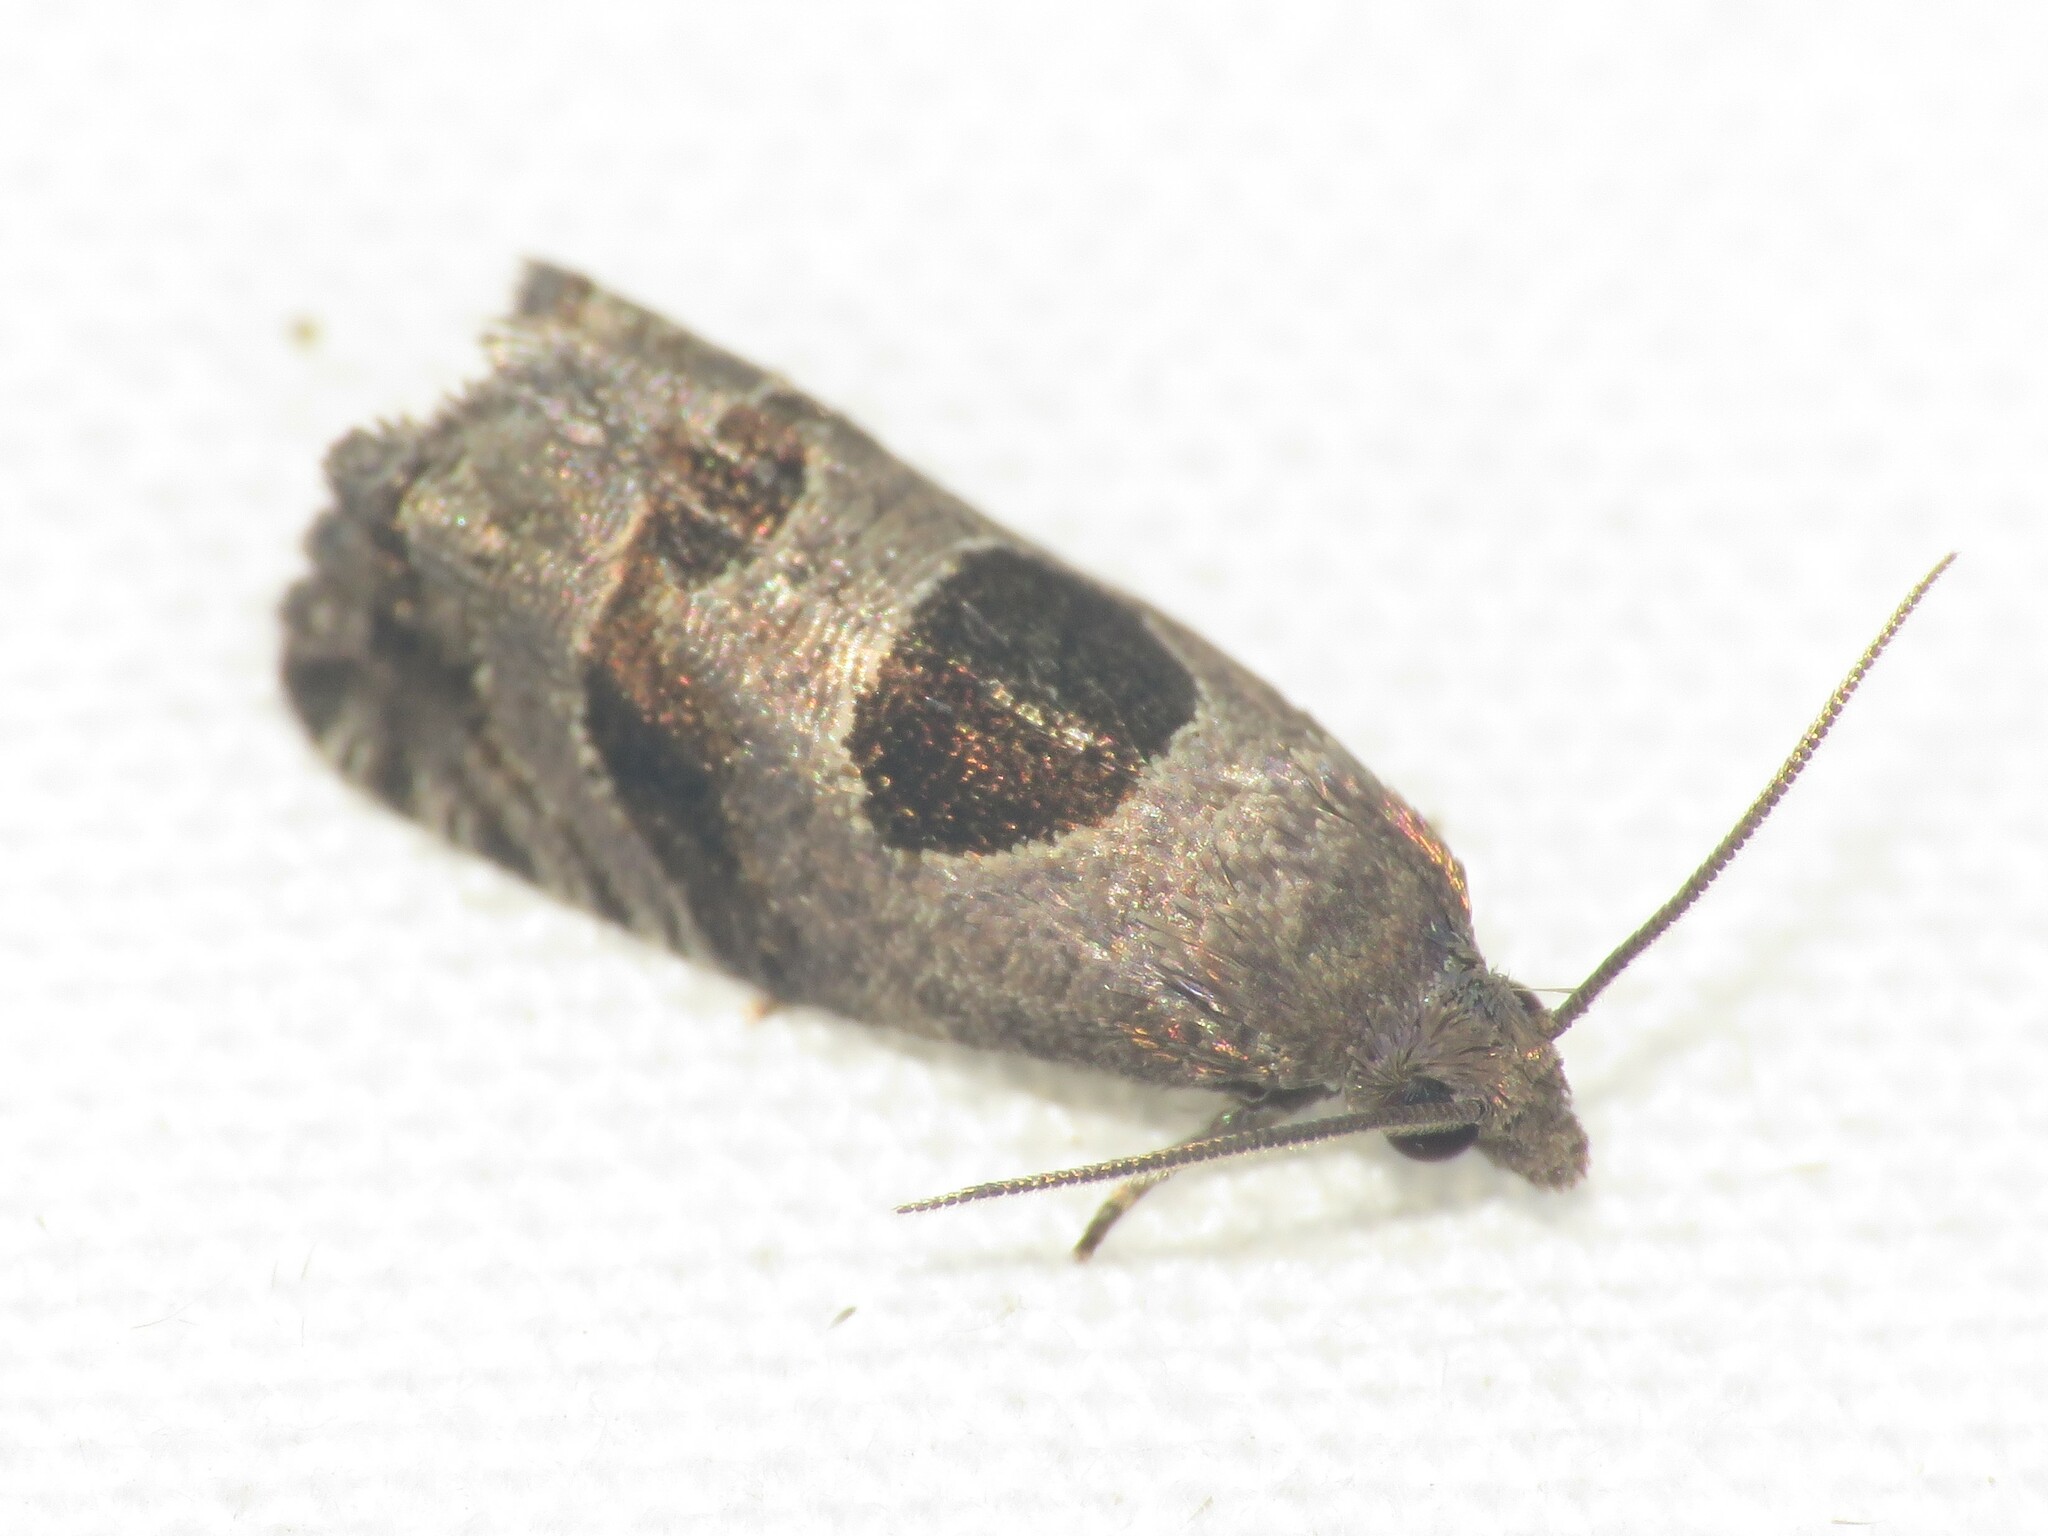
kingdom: Animalia
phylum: Arthropoda
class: Insecta
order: Lepidoptera
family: Tortricidae
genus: Epiblema
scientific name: Epiblema brightonana
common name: Brighton's epiblema moth
